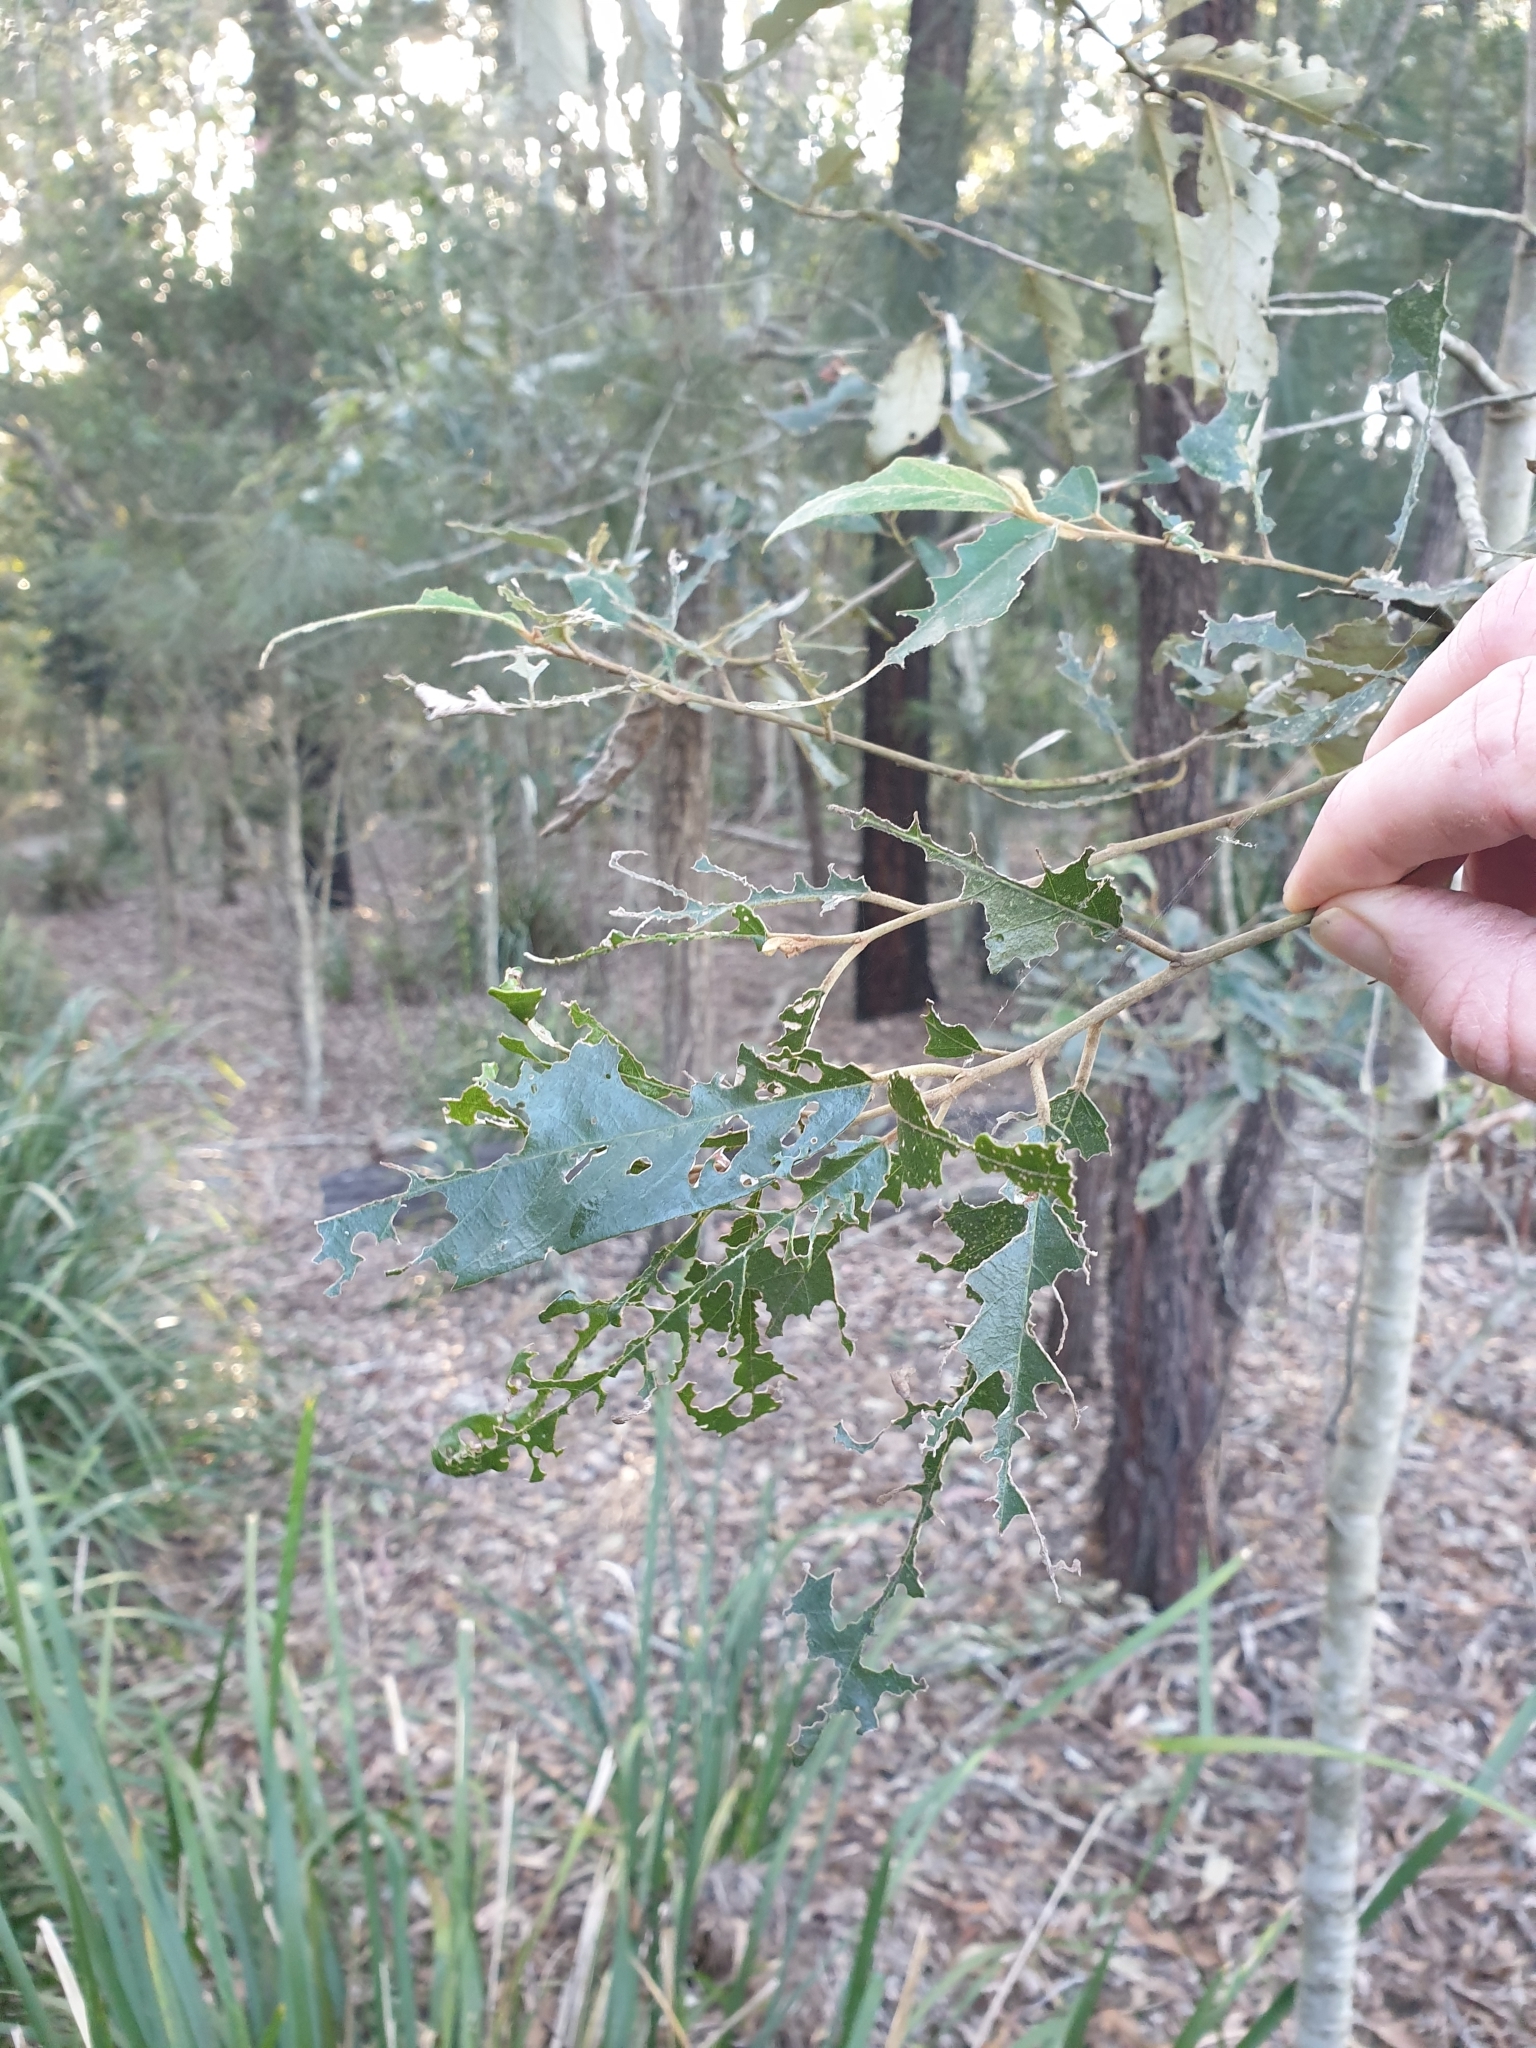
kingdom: Plantae
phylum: Tracheophyta
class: Magnoliopsida
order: Rosales
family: Rhamnaceae
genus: Alphitonia
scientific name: Alphitonia excelsa
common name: Red ash
